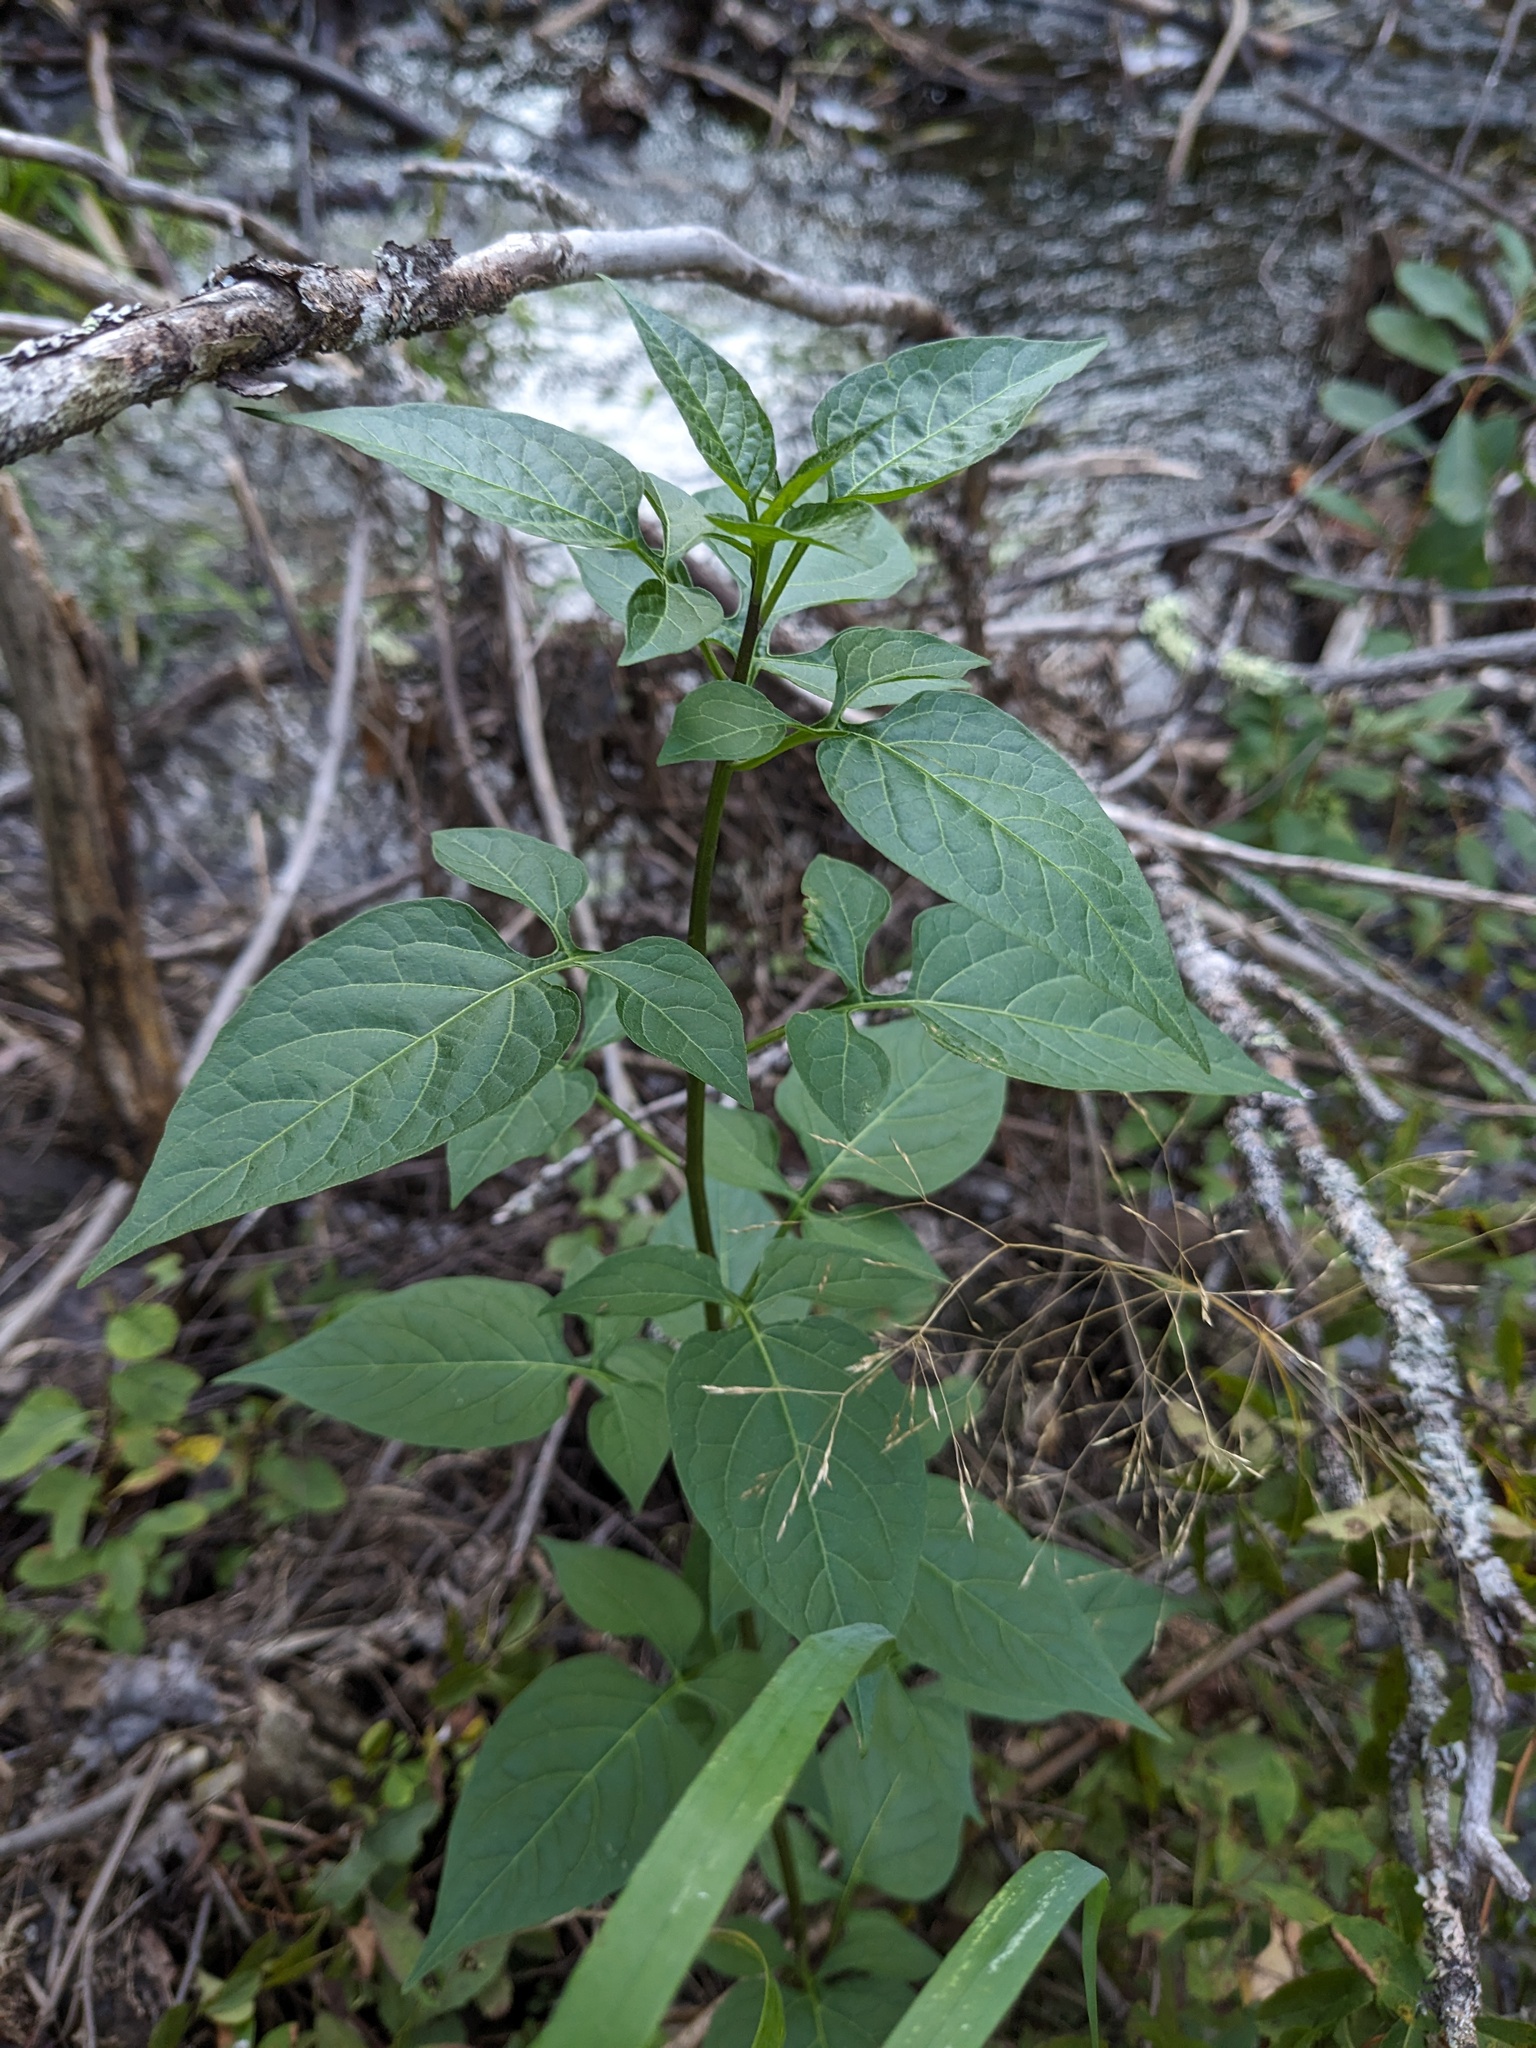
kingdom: Plantae
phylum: Tracheophyta
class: Magnoliopsida
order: Solanales
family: Solanaceae
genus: Solanum
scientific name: Solanum dulcamara
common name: Climbing nightshade
